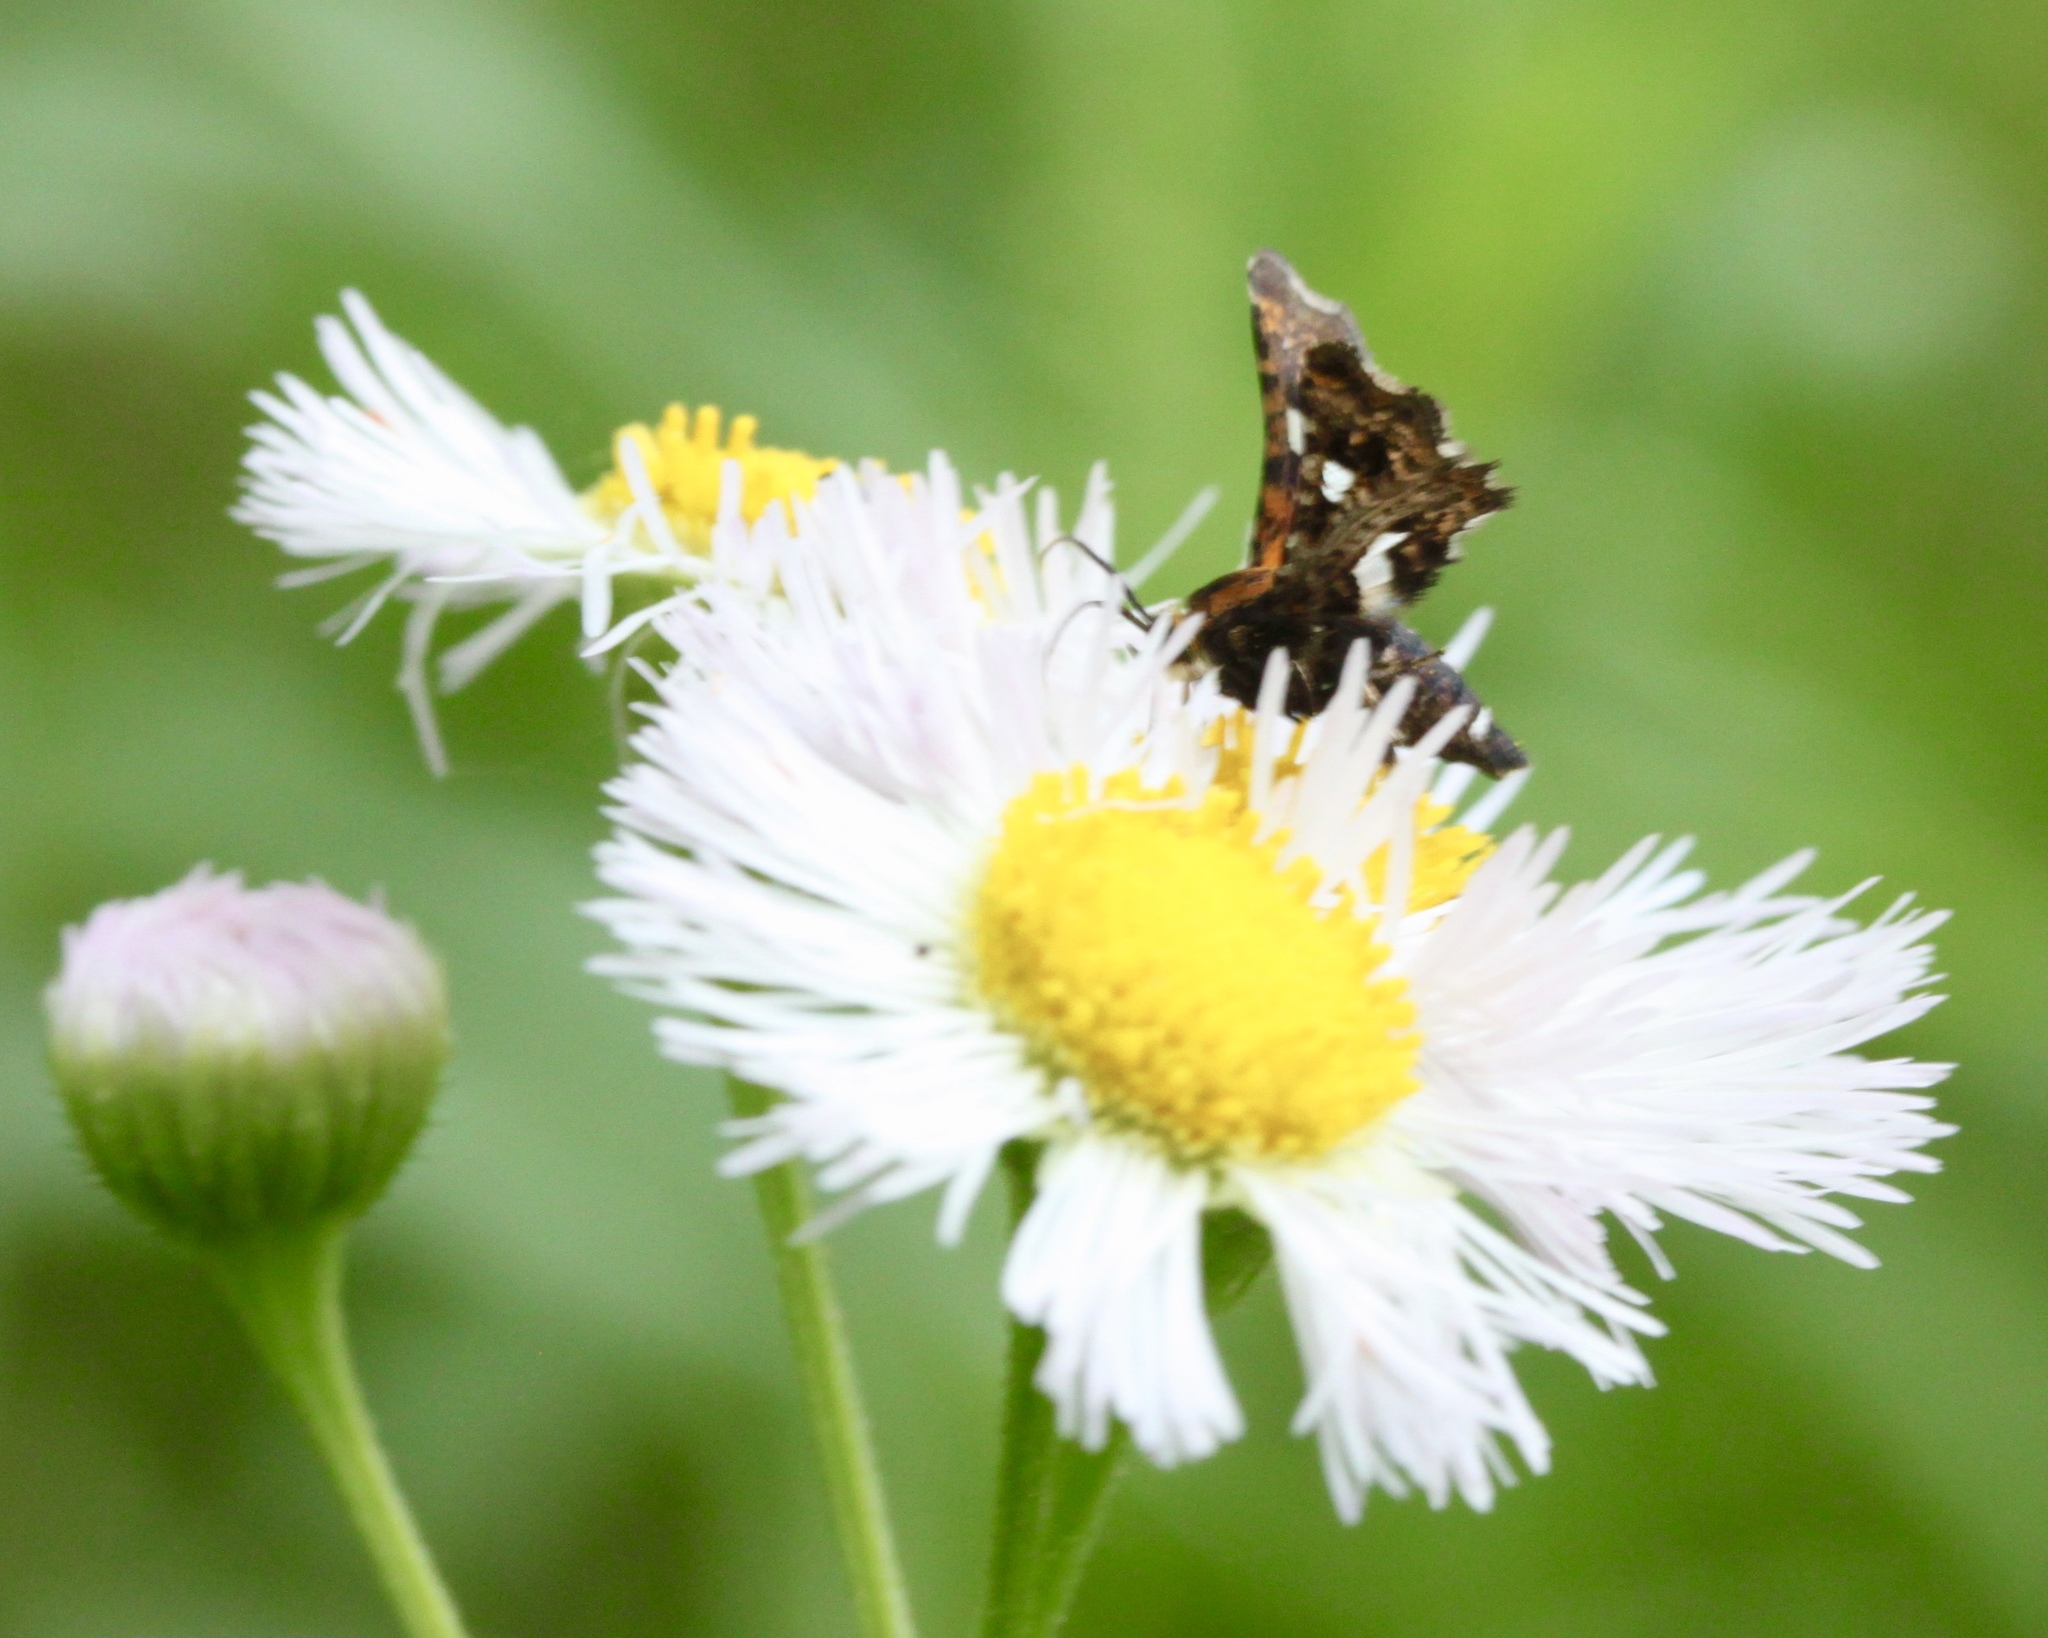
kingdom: Animalia
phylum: Arthropoda
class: Insecta
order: Lepidoptera
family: Thyrididae
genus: Thyris
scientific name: Thyris maculata
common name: Spotted thyris moth
